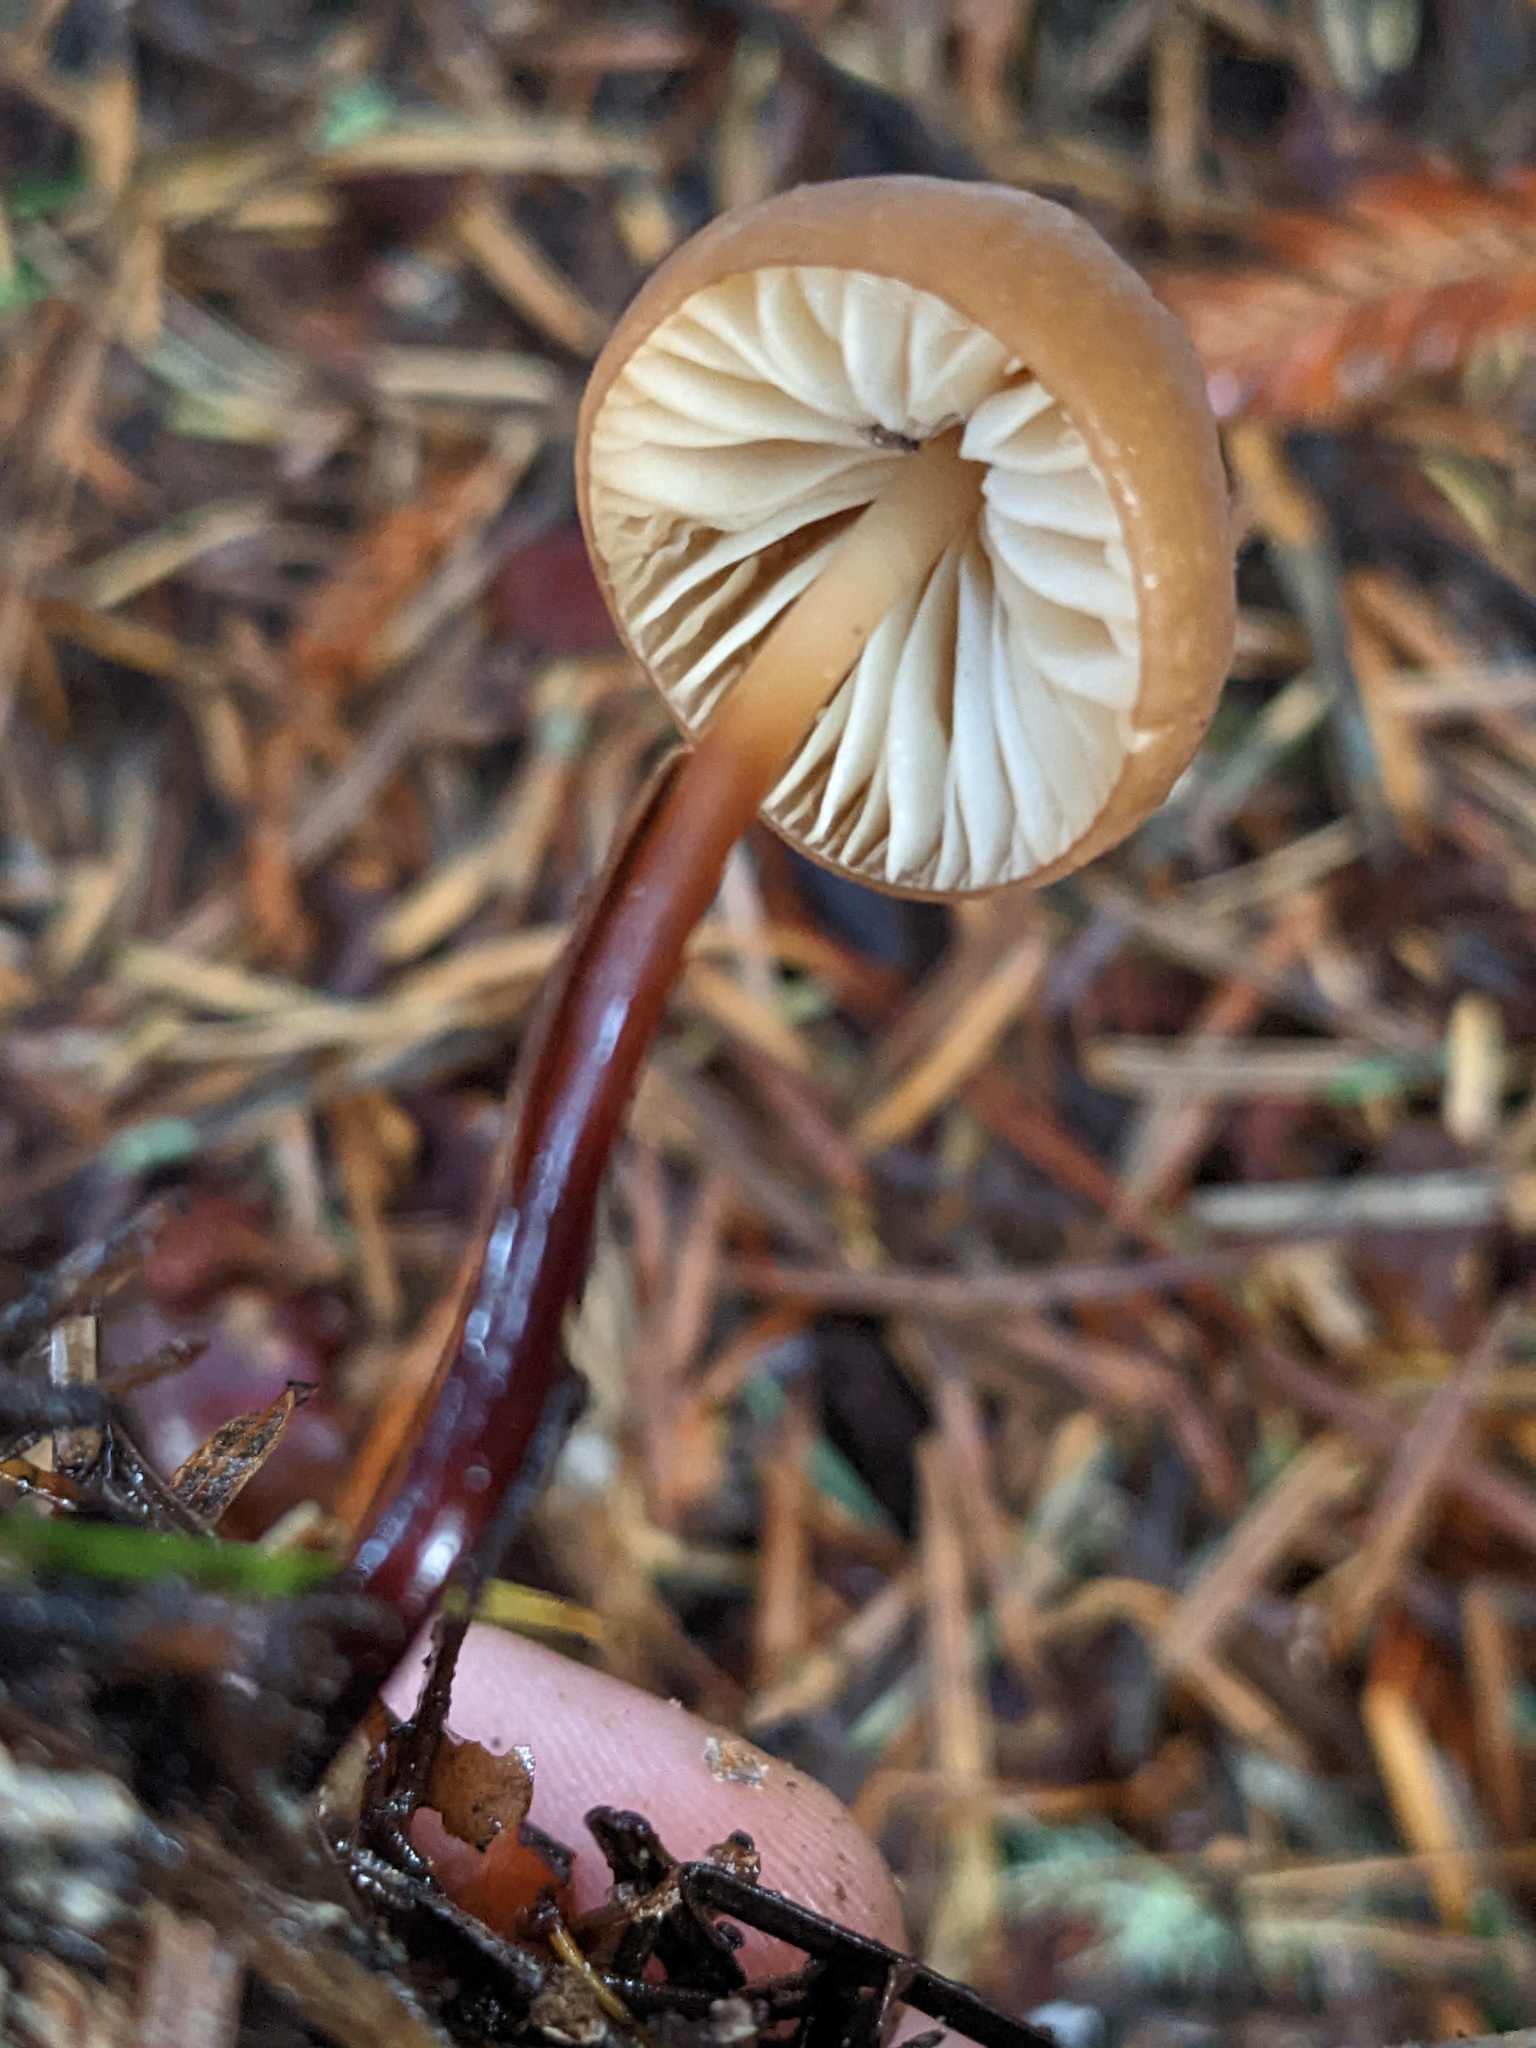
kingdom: Fungi
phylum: Basidiomycota
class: Agaricomycetes
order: Agaricales
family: Marasmiaceae
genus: Marasmius
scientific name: Marasmius plicatulus
